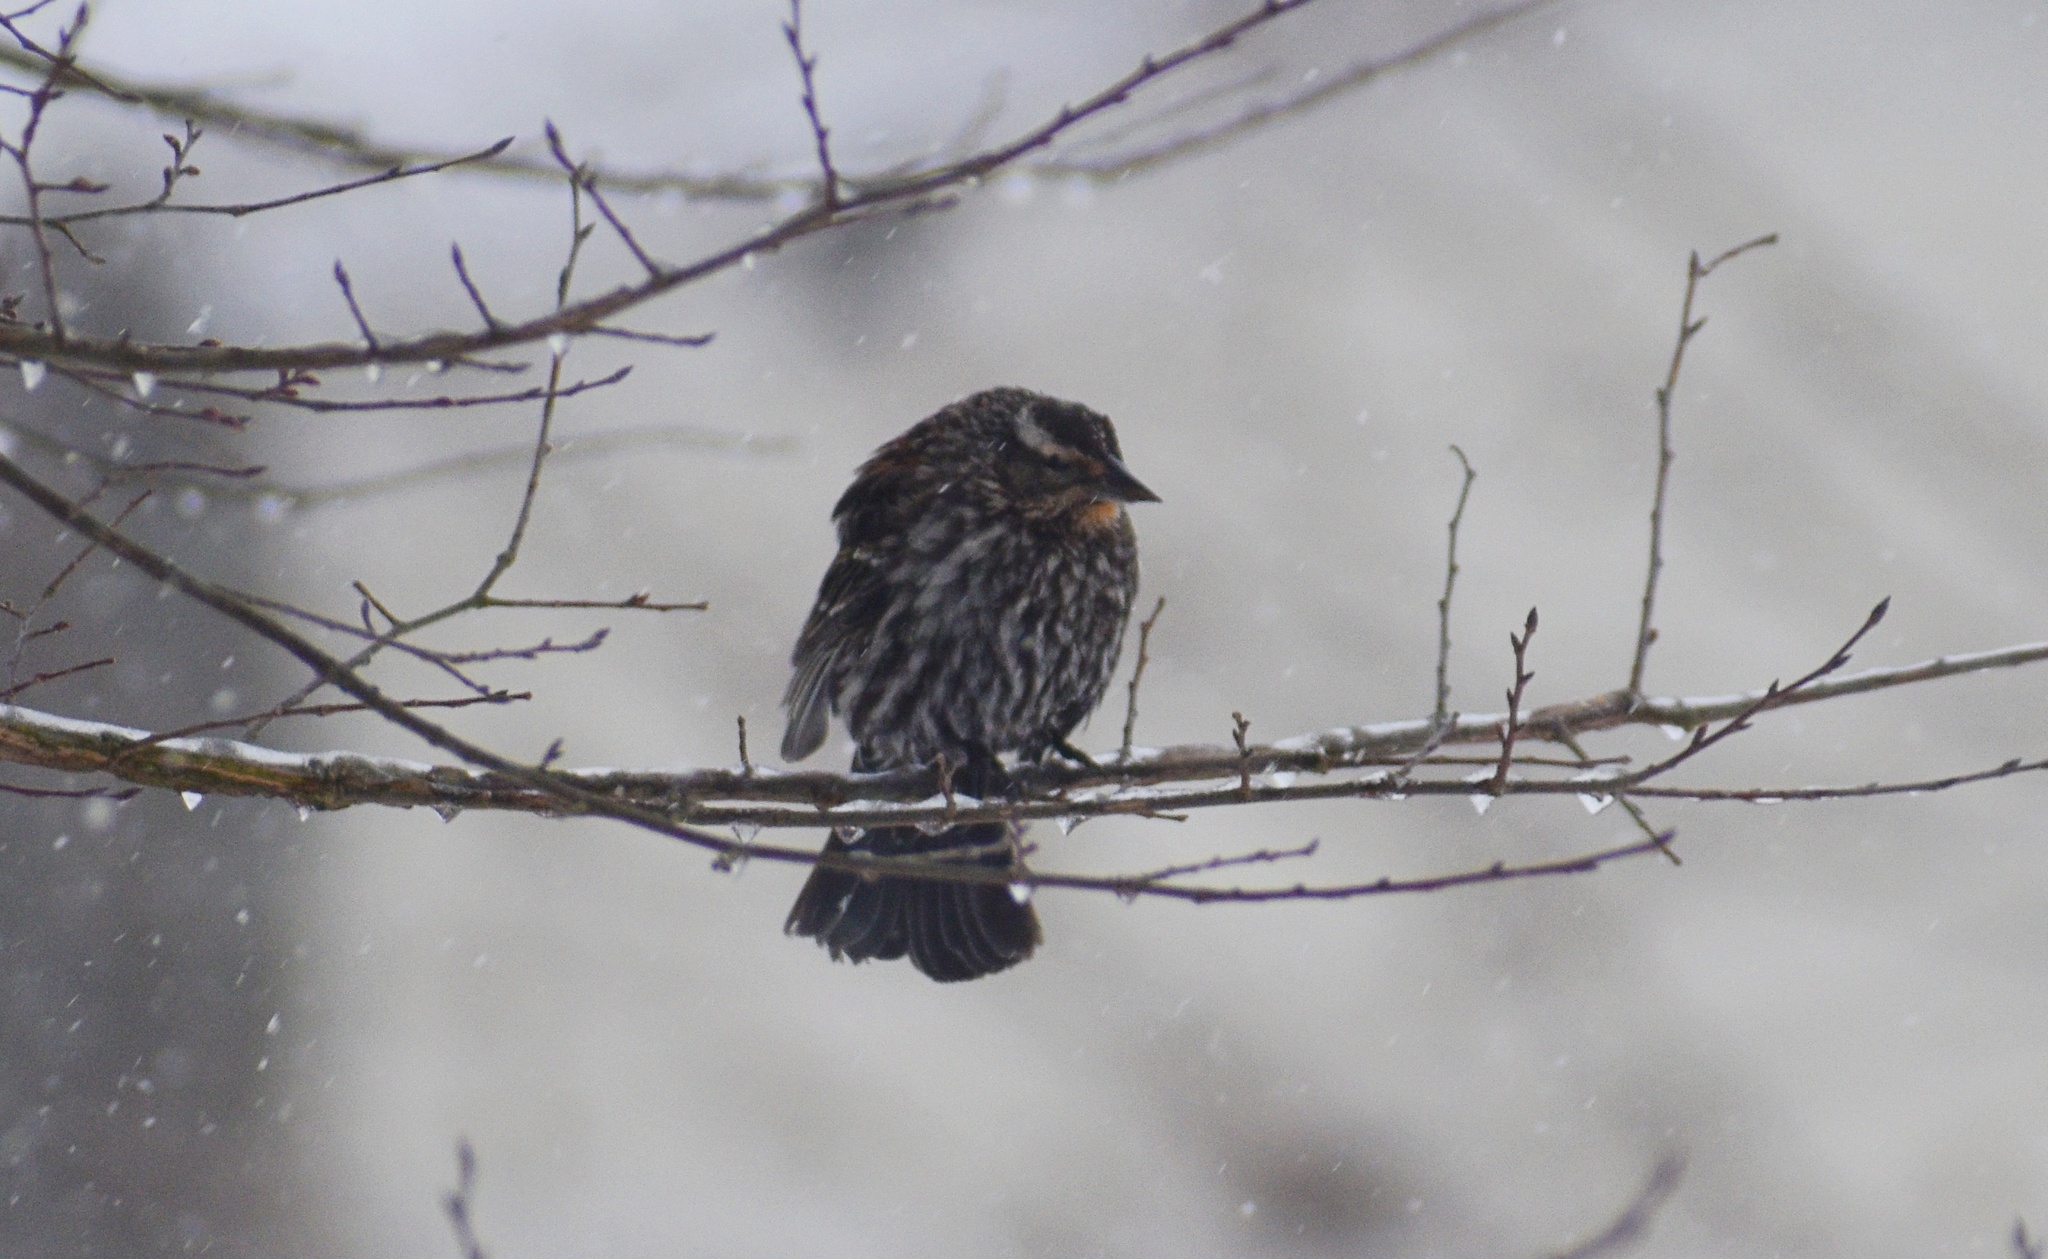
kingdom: Animalia
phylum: Chordata
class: Aves
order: Passeriformes
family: Icteridae
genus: Agelaius
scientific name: Agelaius phoeniceus
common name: Red-winged blackbird
